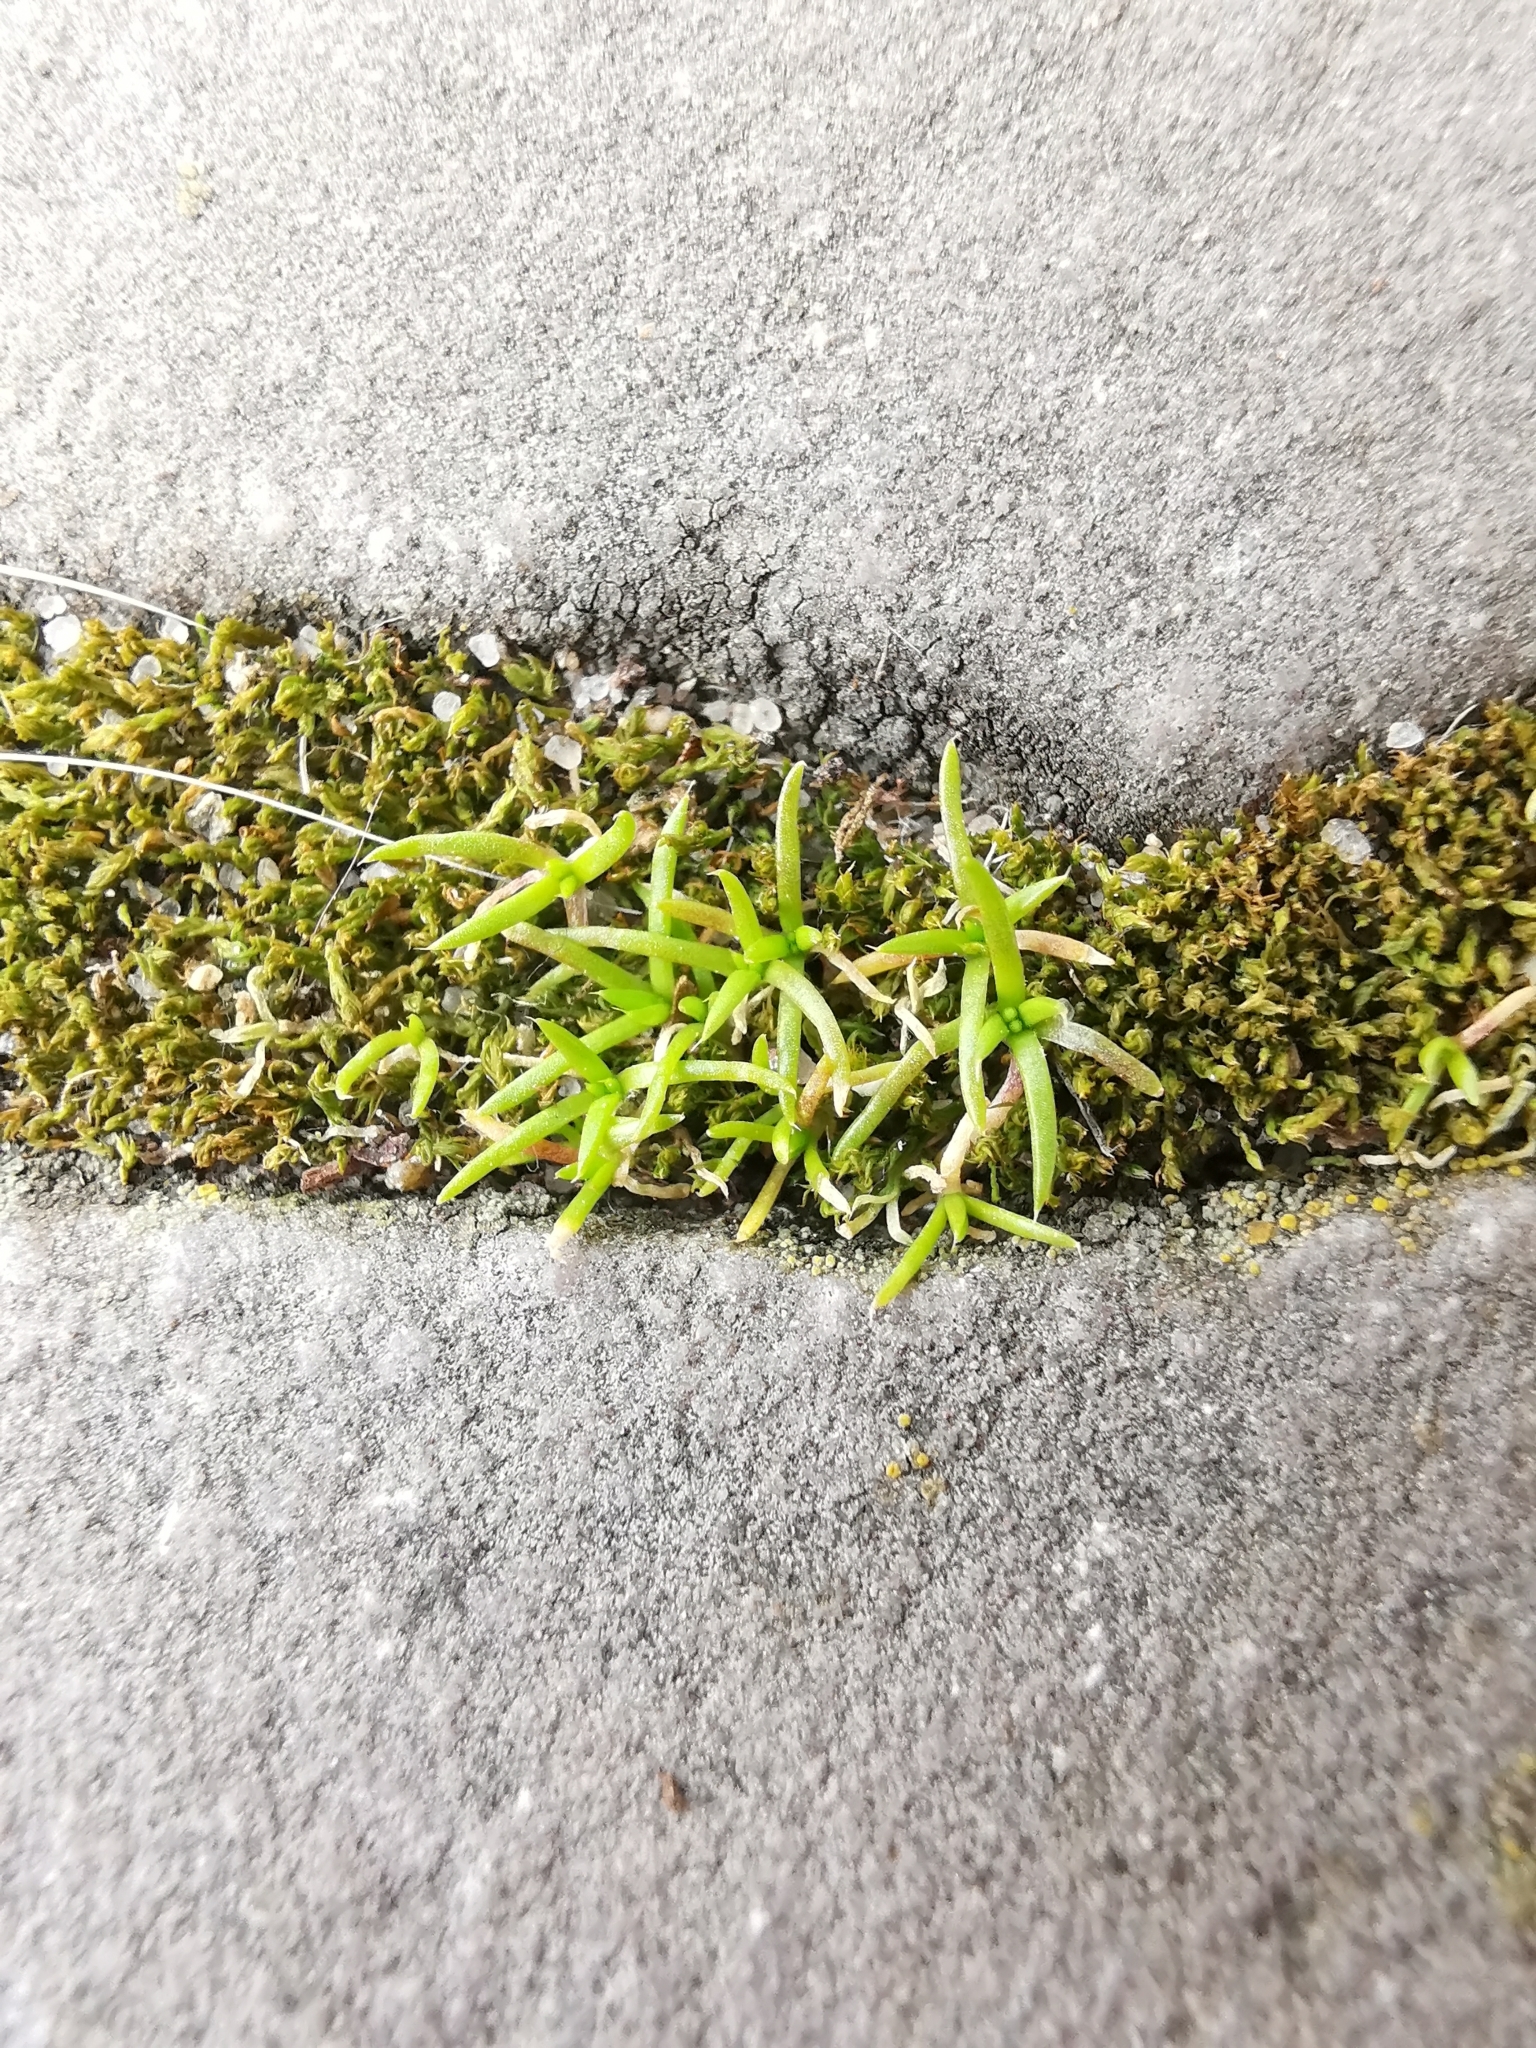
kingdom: Plantae
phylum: Tracheophyta
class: Magnoliopsida
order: Caryophyllales
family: Caryophyllaceae
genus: Sagina
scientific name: Sagina procumbens
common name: Procumbent pearlwort
